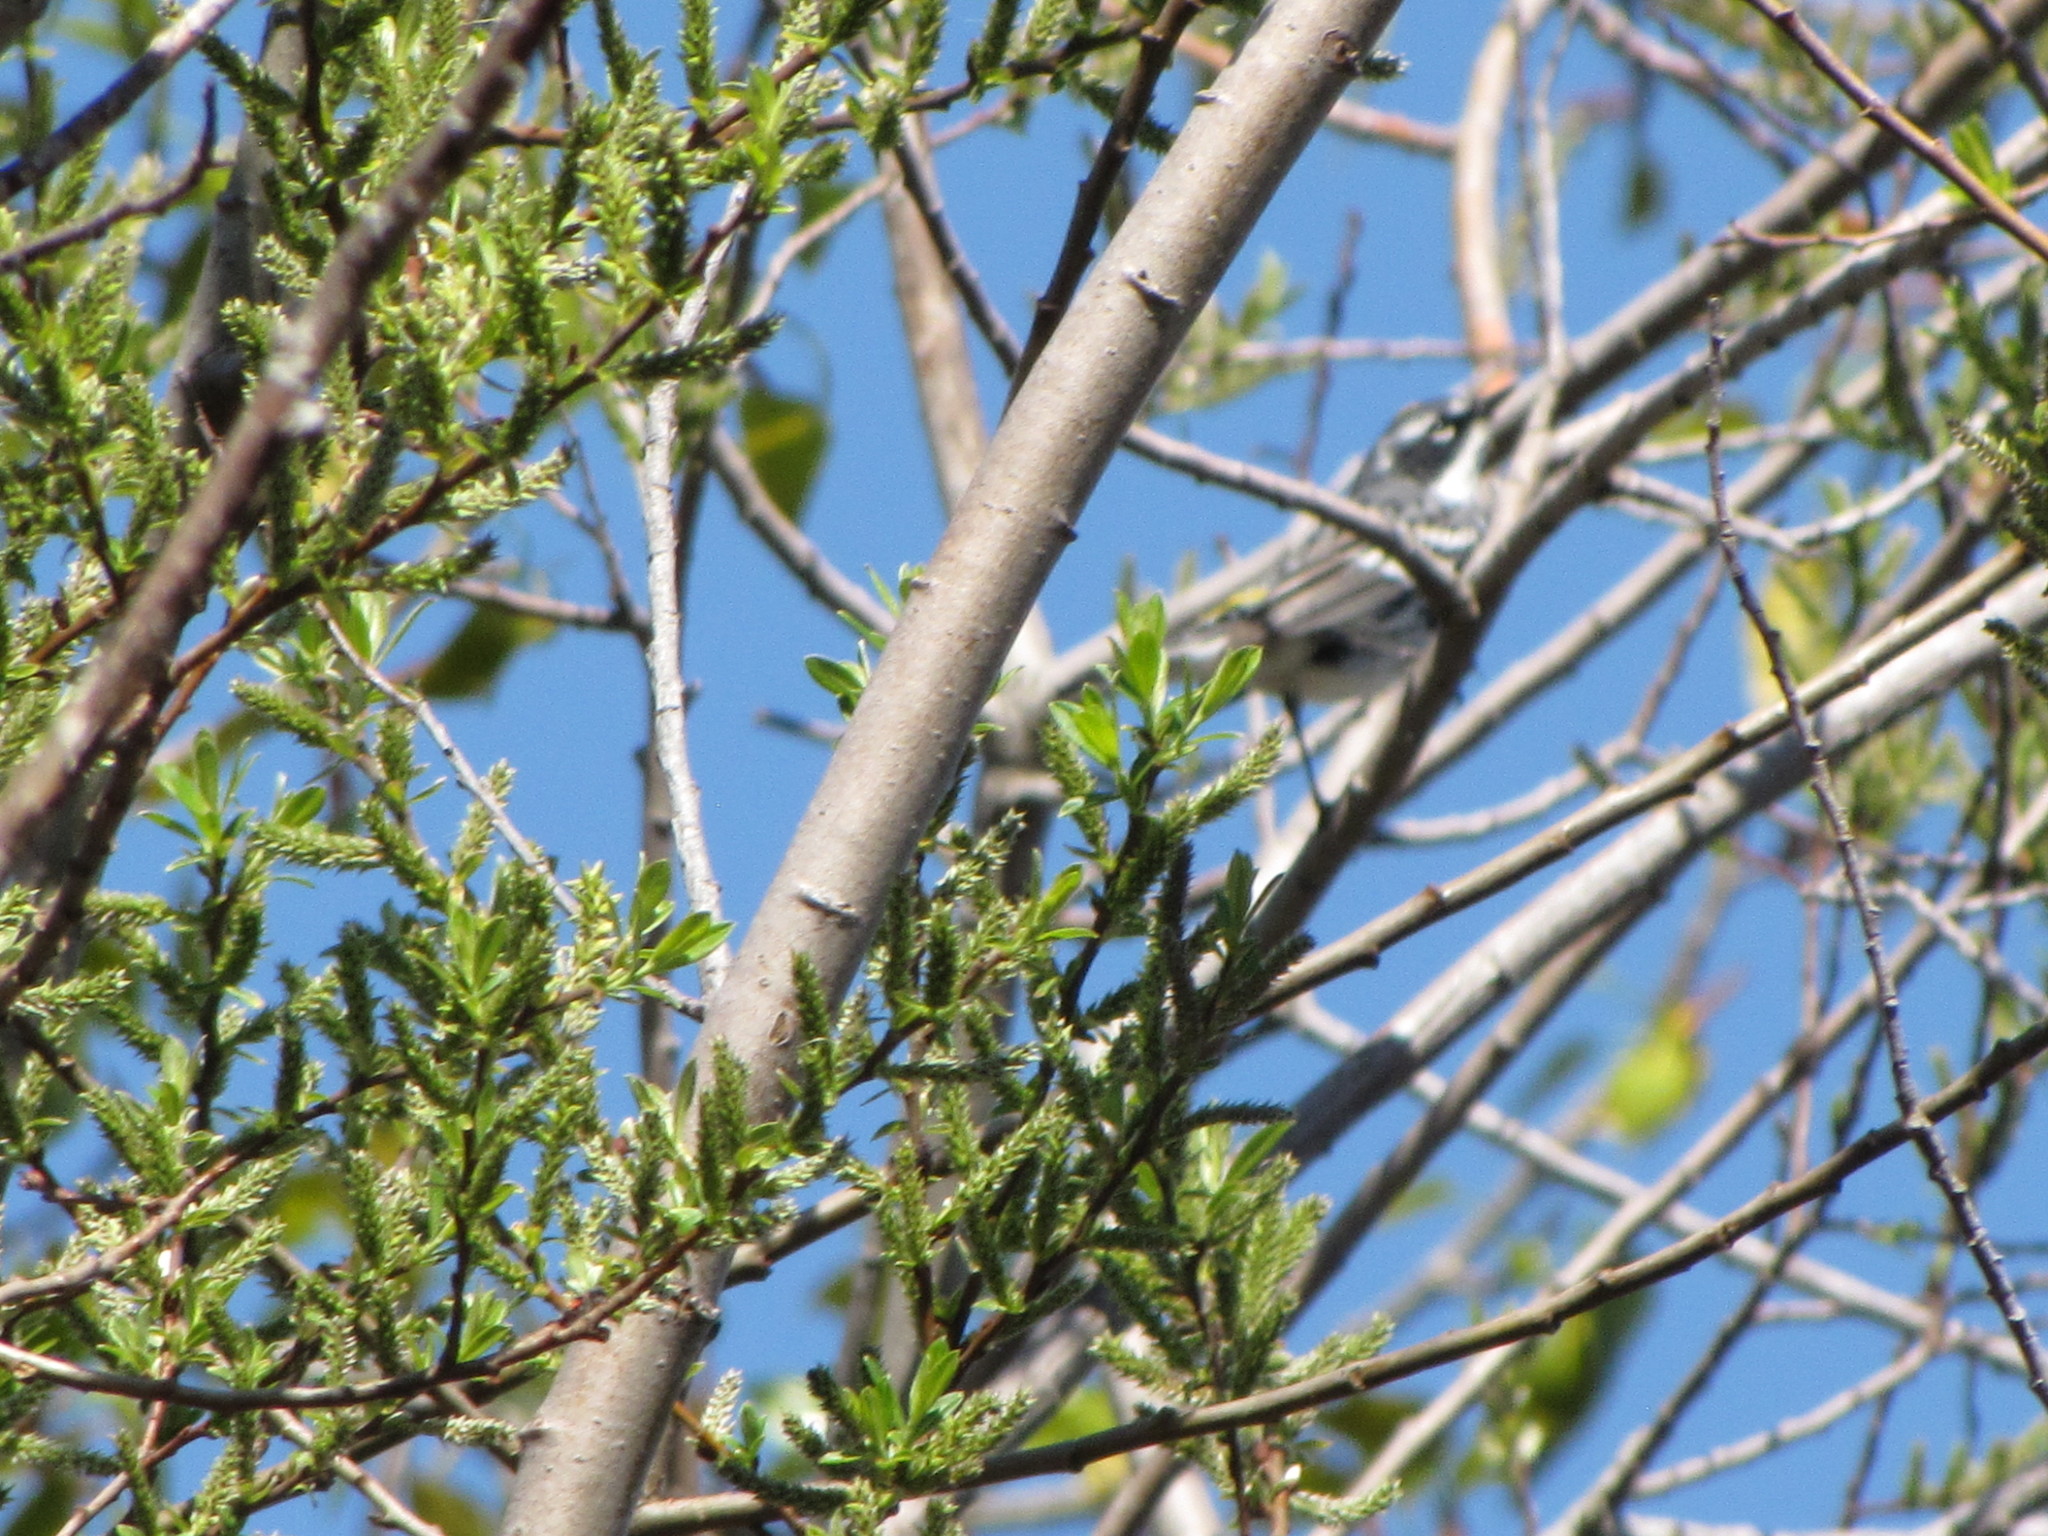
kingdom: Animalia
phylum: Chordata
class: Aves
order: Passeriformes
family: Parulidae
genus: Setophaga
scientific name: Setophaga coronata
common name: Myrtle warbler
